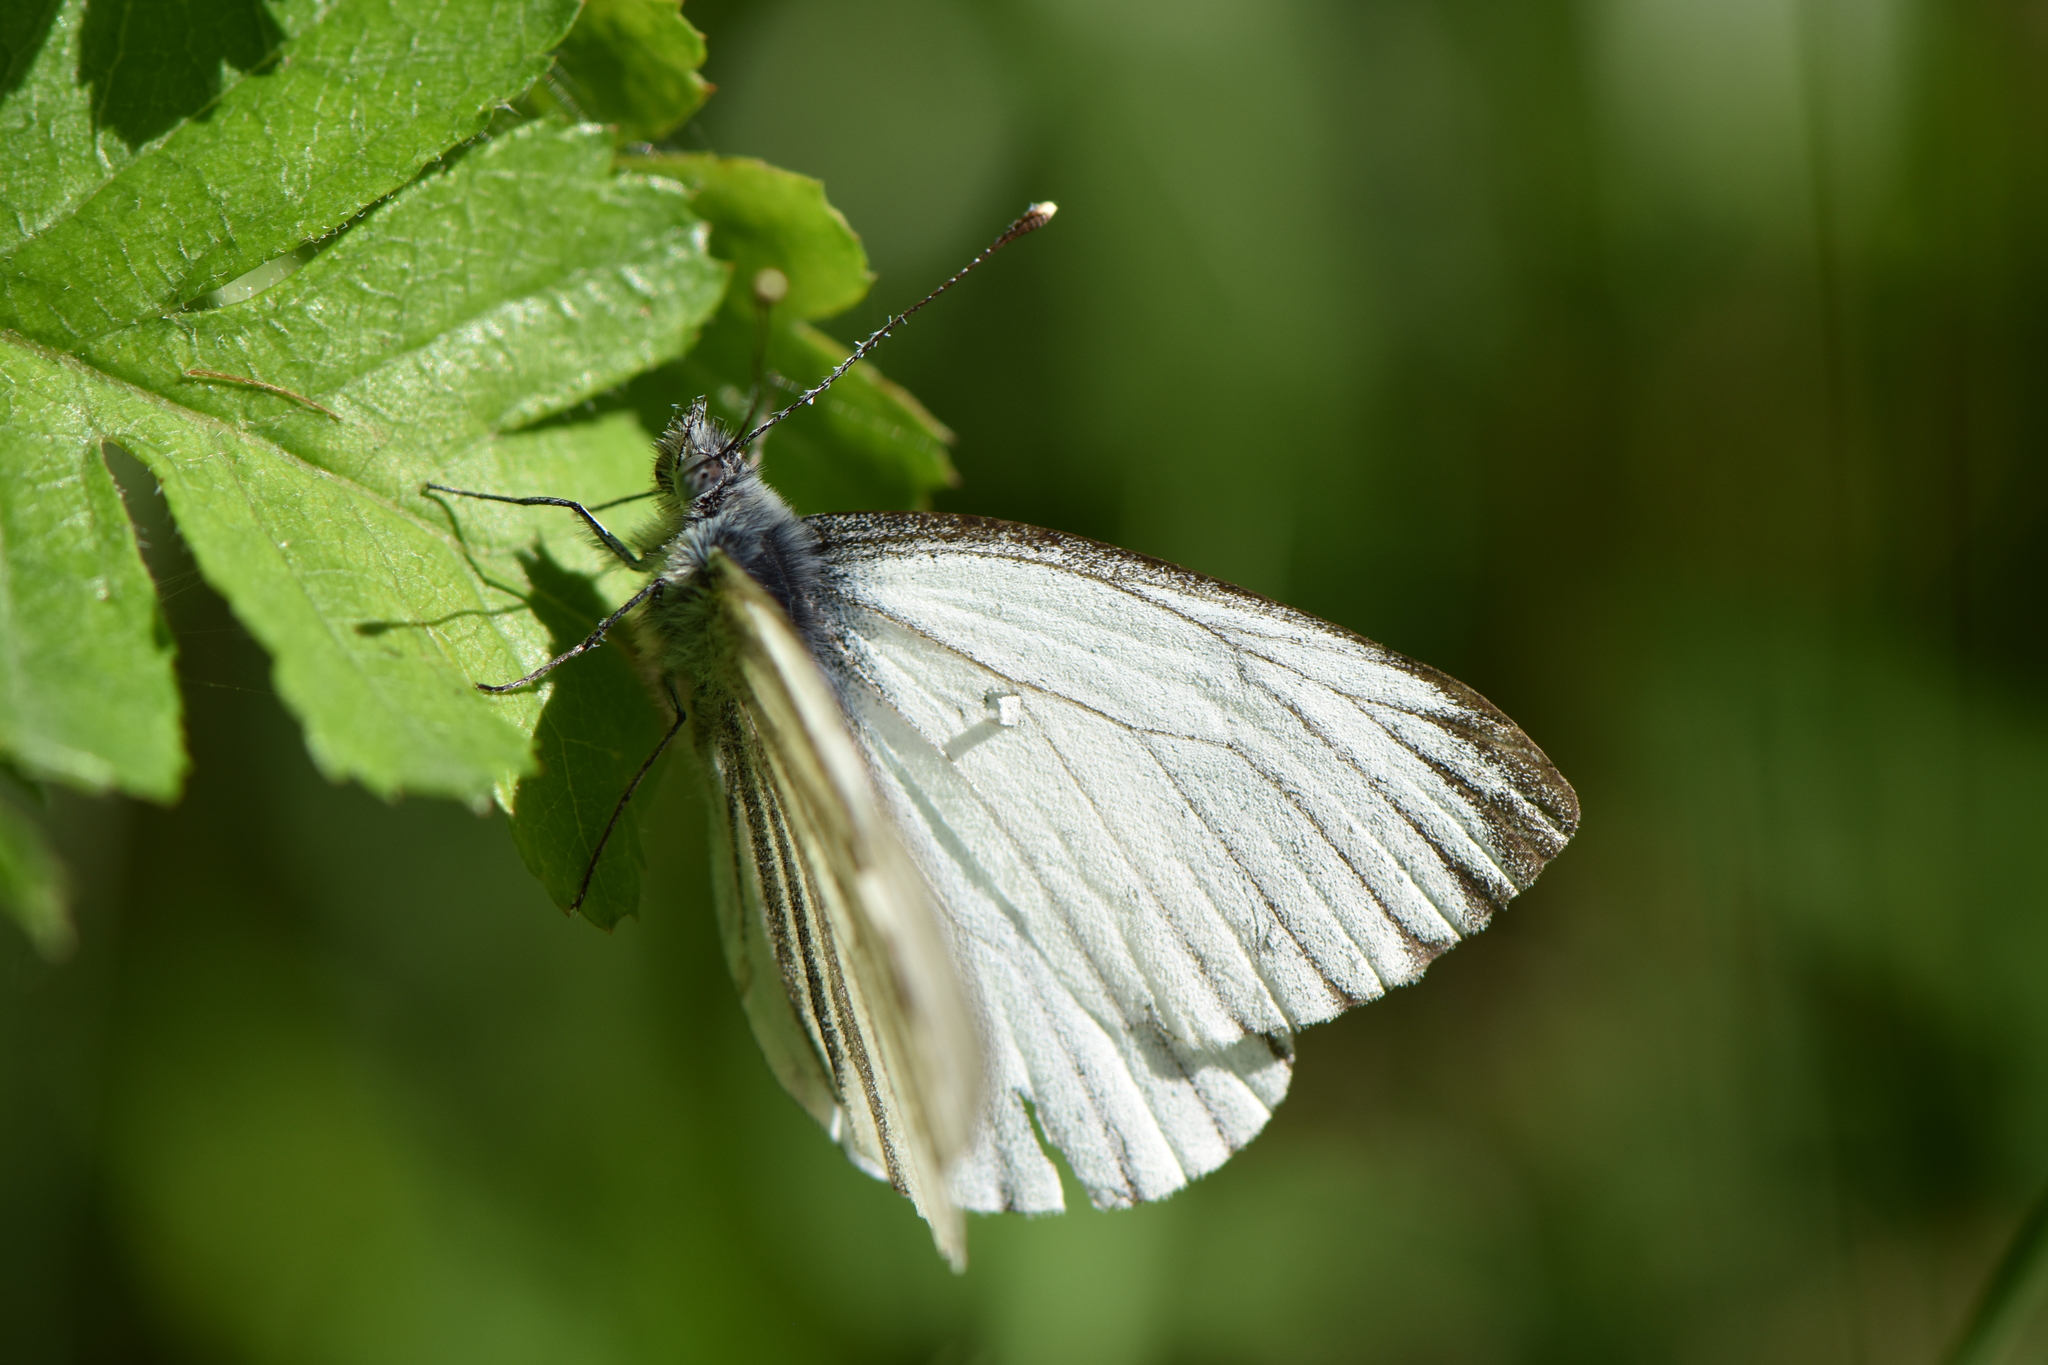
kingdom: Animalia
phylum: Arthropoda
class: Insecta
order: Lepidoptera
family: Pieridae
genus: Pieris
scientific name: Pieris napi
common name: Green-veined white
